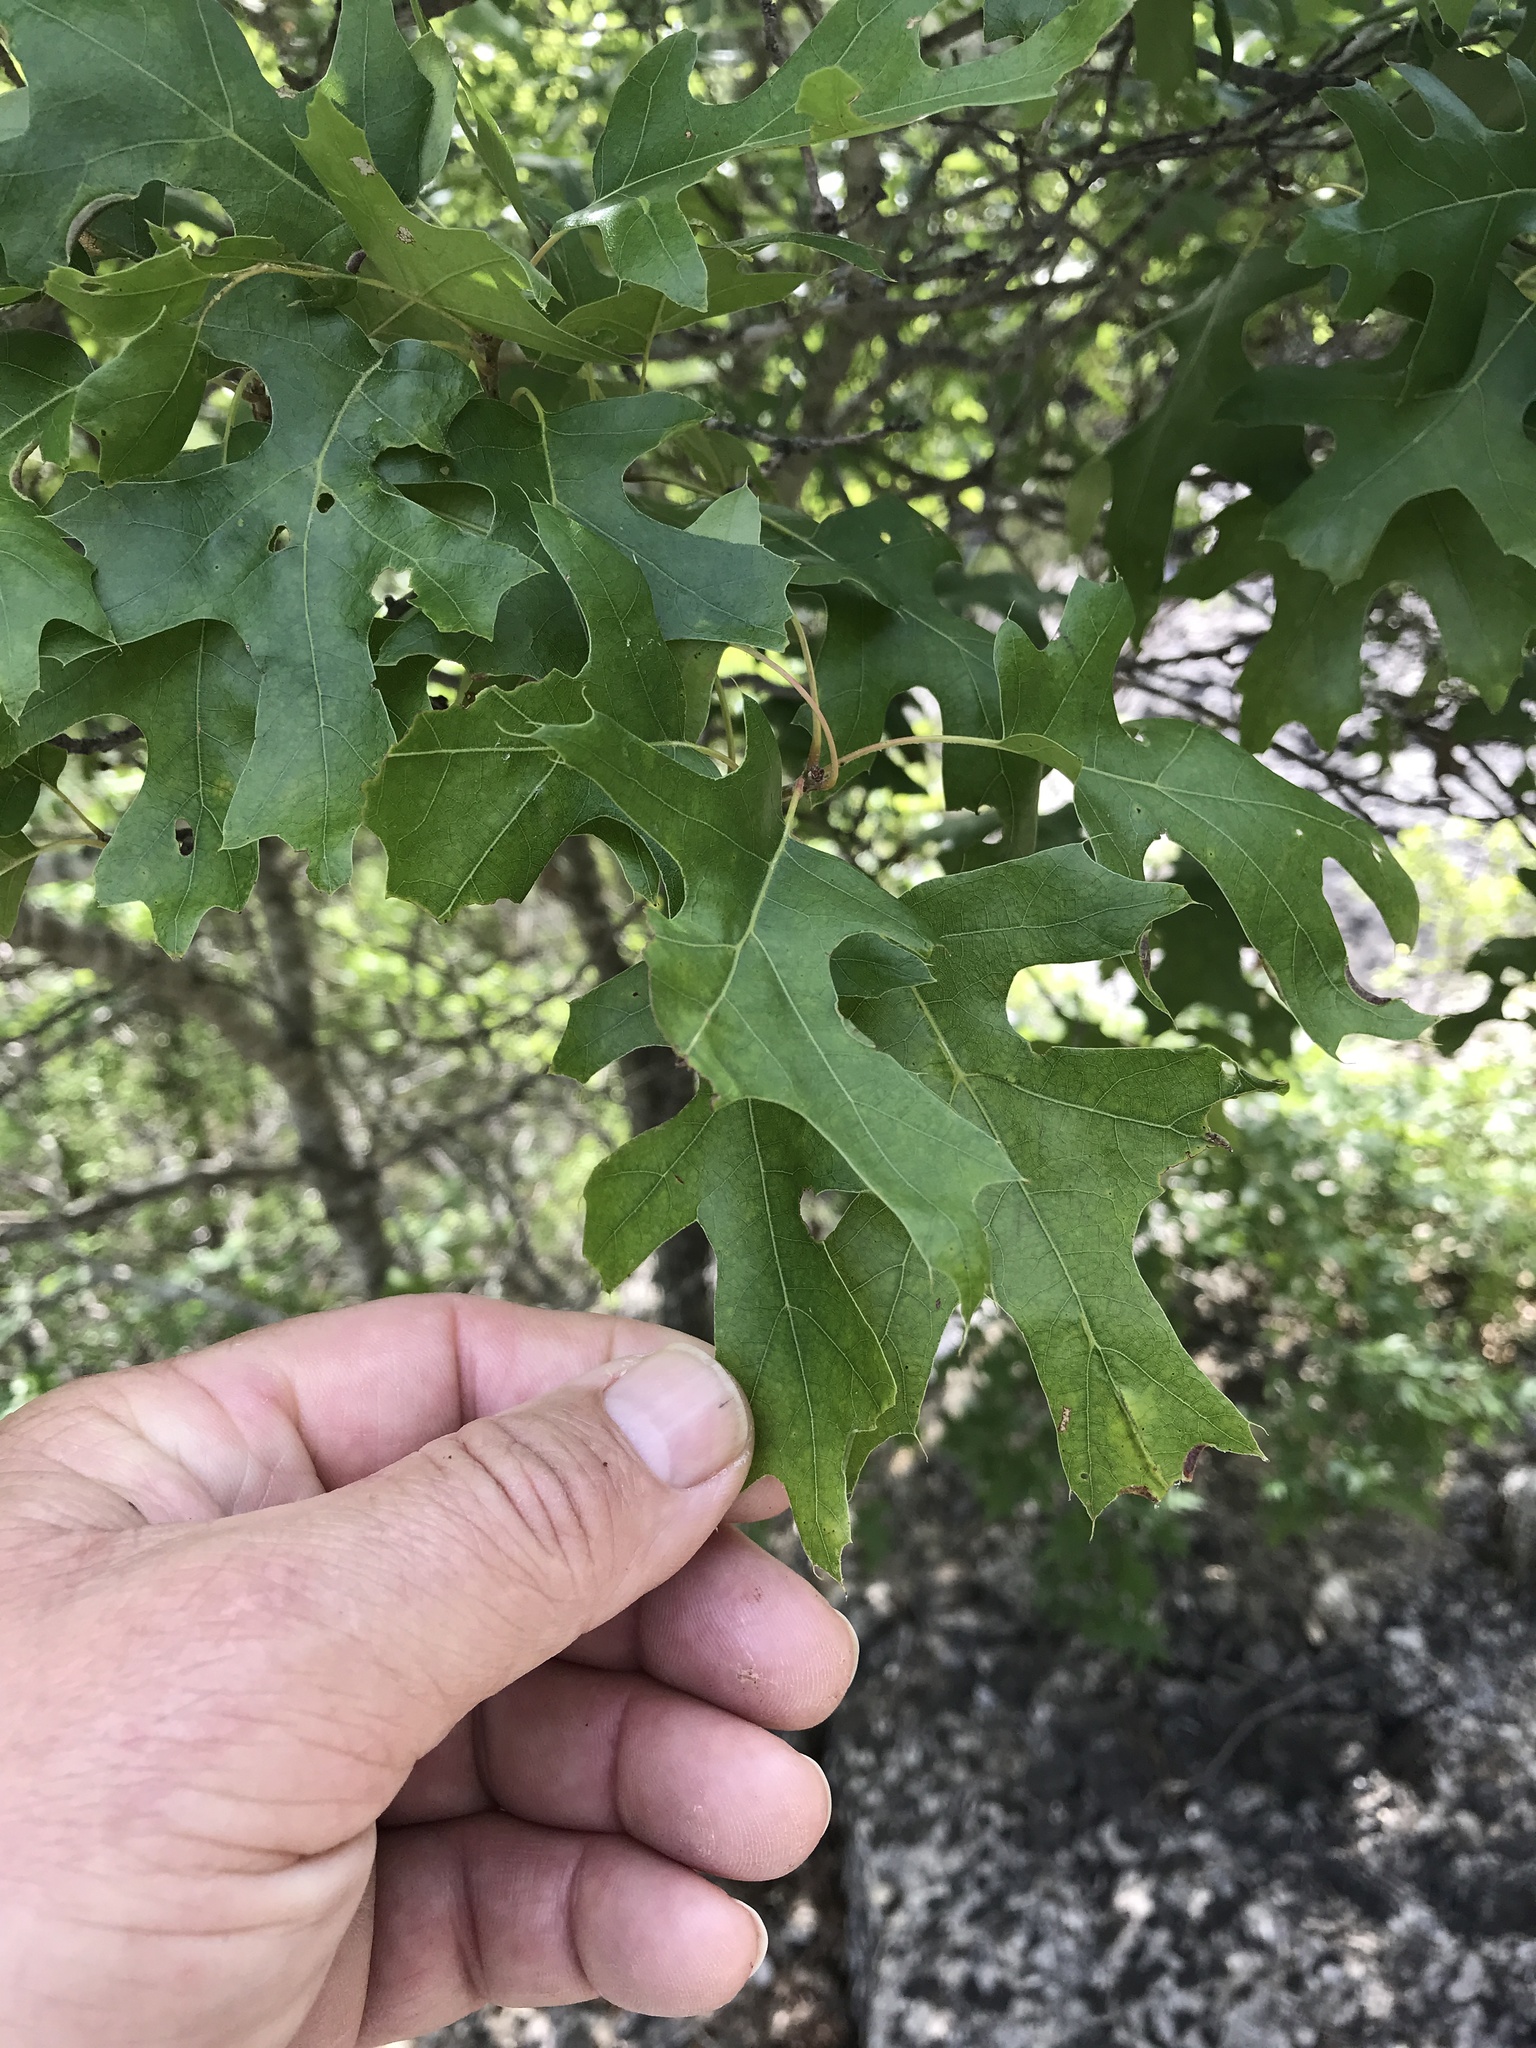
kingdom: Plantae
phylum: Tracheophyta
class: Magnoliopsida
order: Fagales
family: Fagaceae
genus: Quercus
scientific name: Quercus buckleyi
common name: Buckley oak
